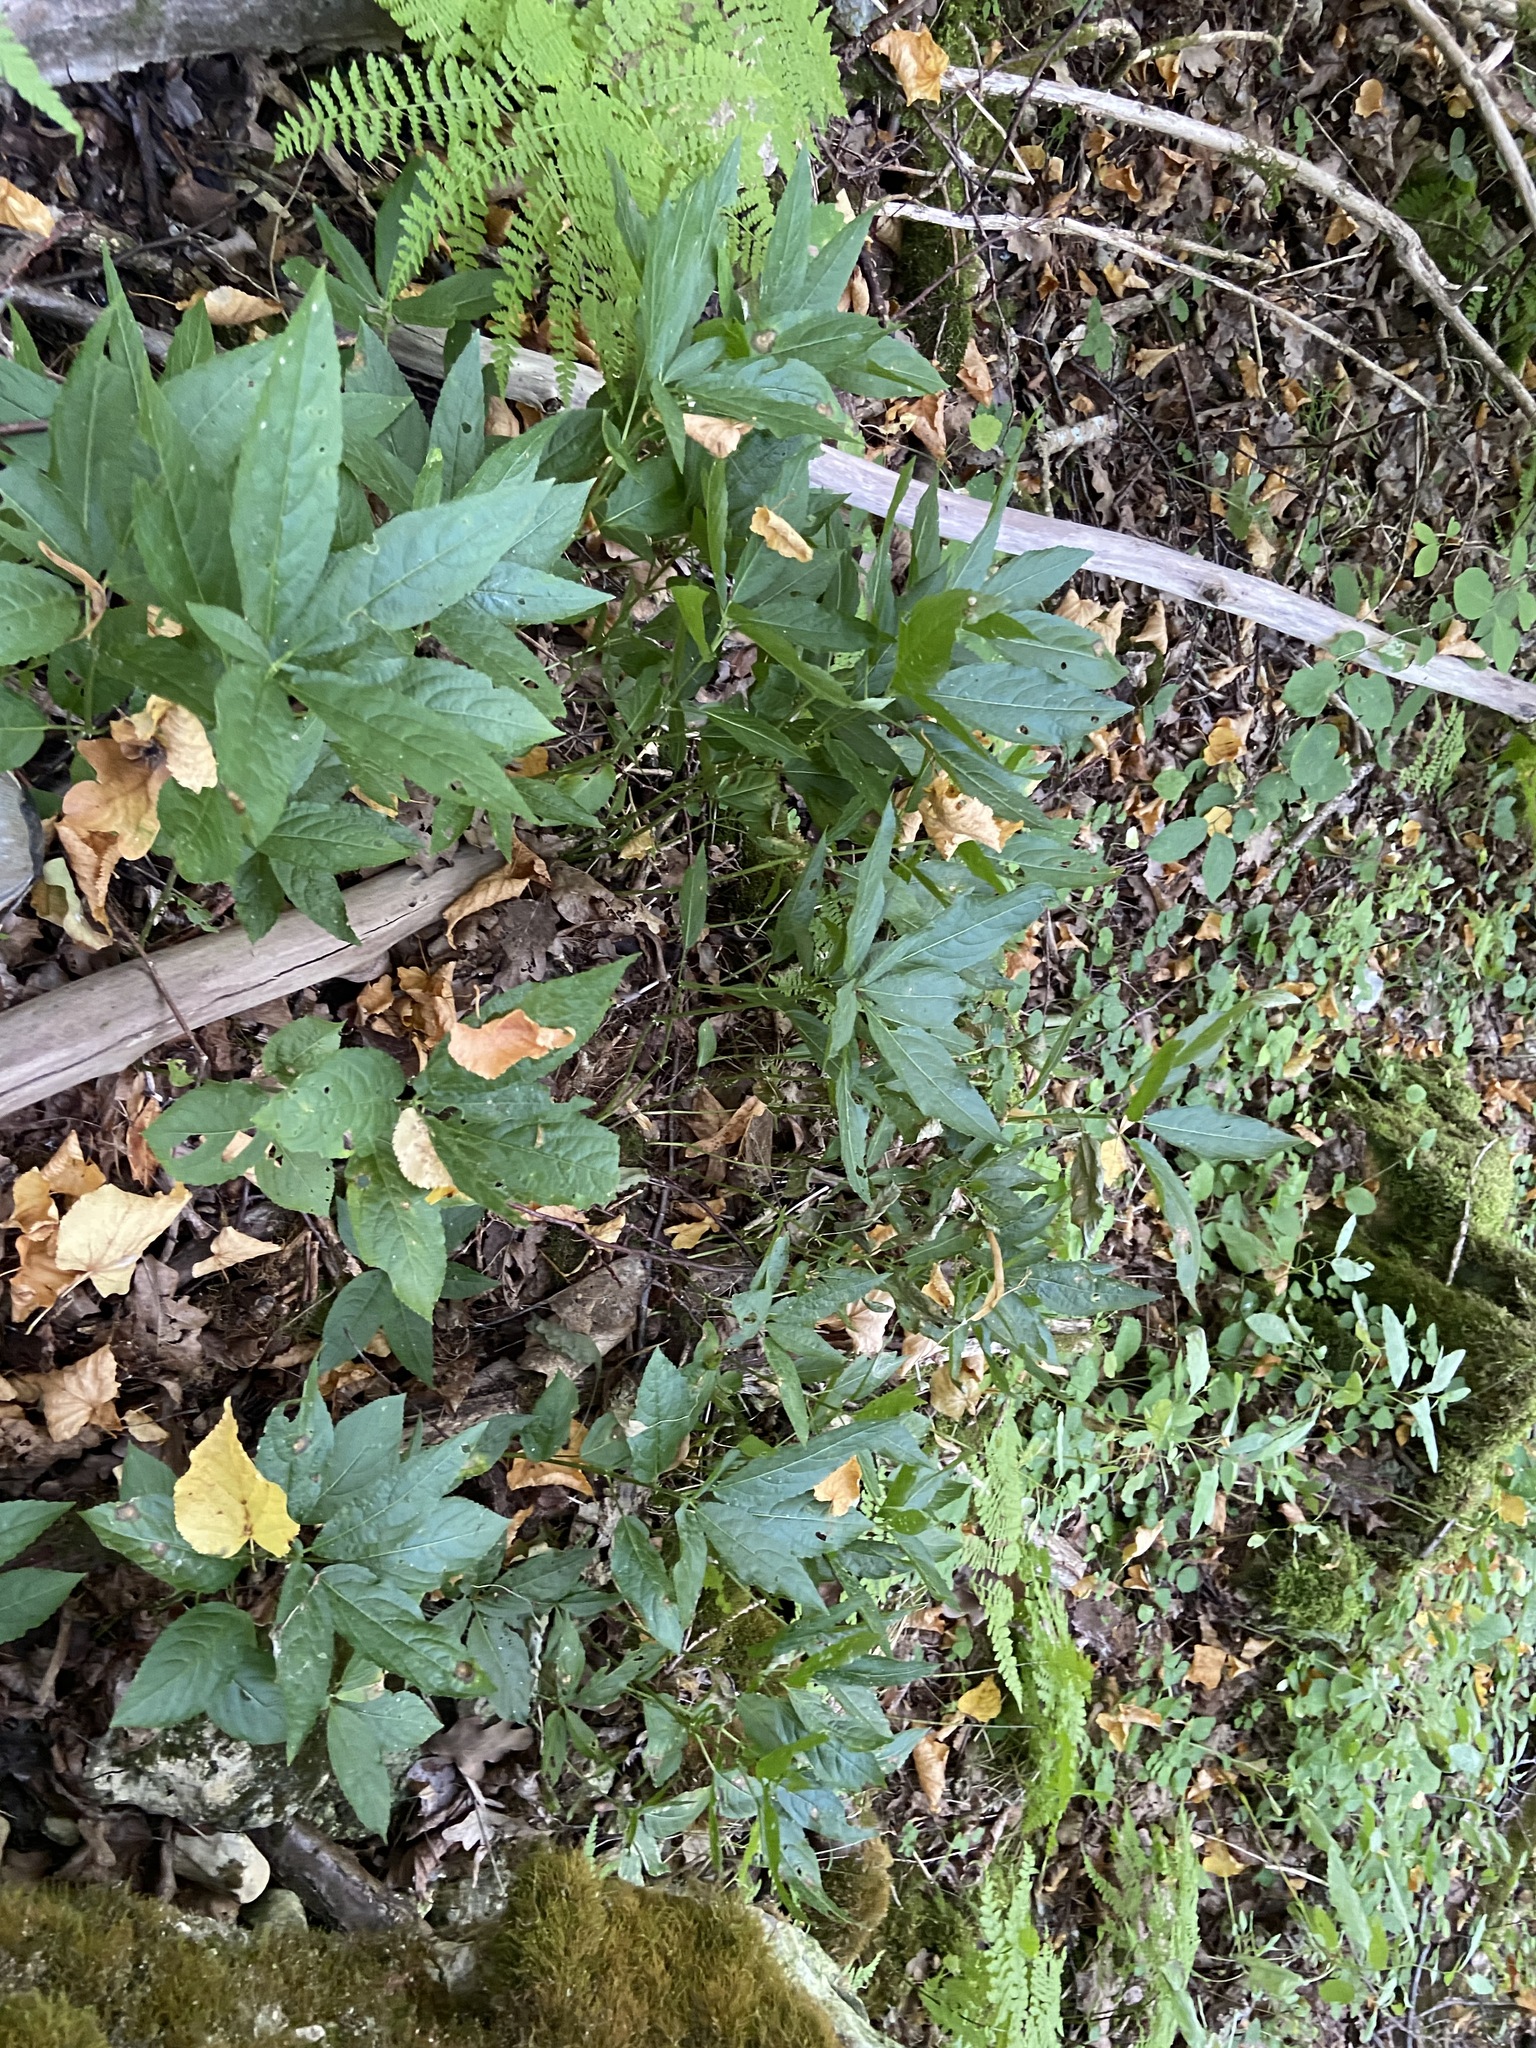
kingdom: Plantae
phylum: Tracheophyta
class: Magnoliopsida
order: Malpighiales
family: Euphorbiaceae
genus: Mercurialis
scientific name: Mercurialis perennis
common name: Dog mercury
